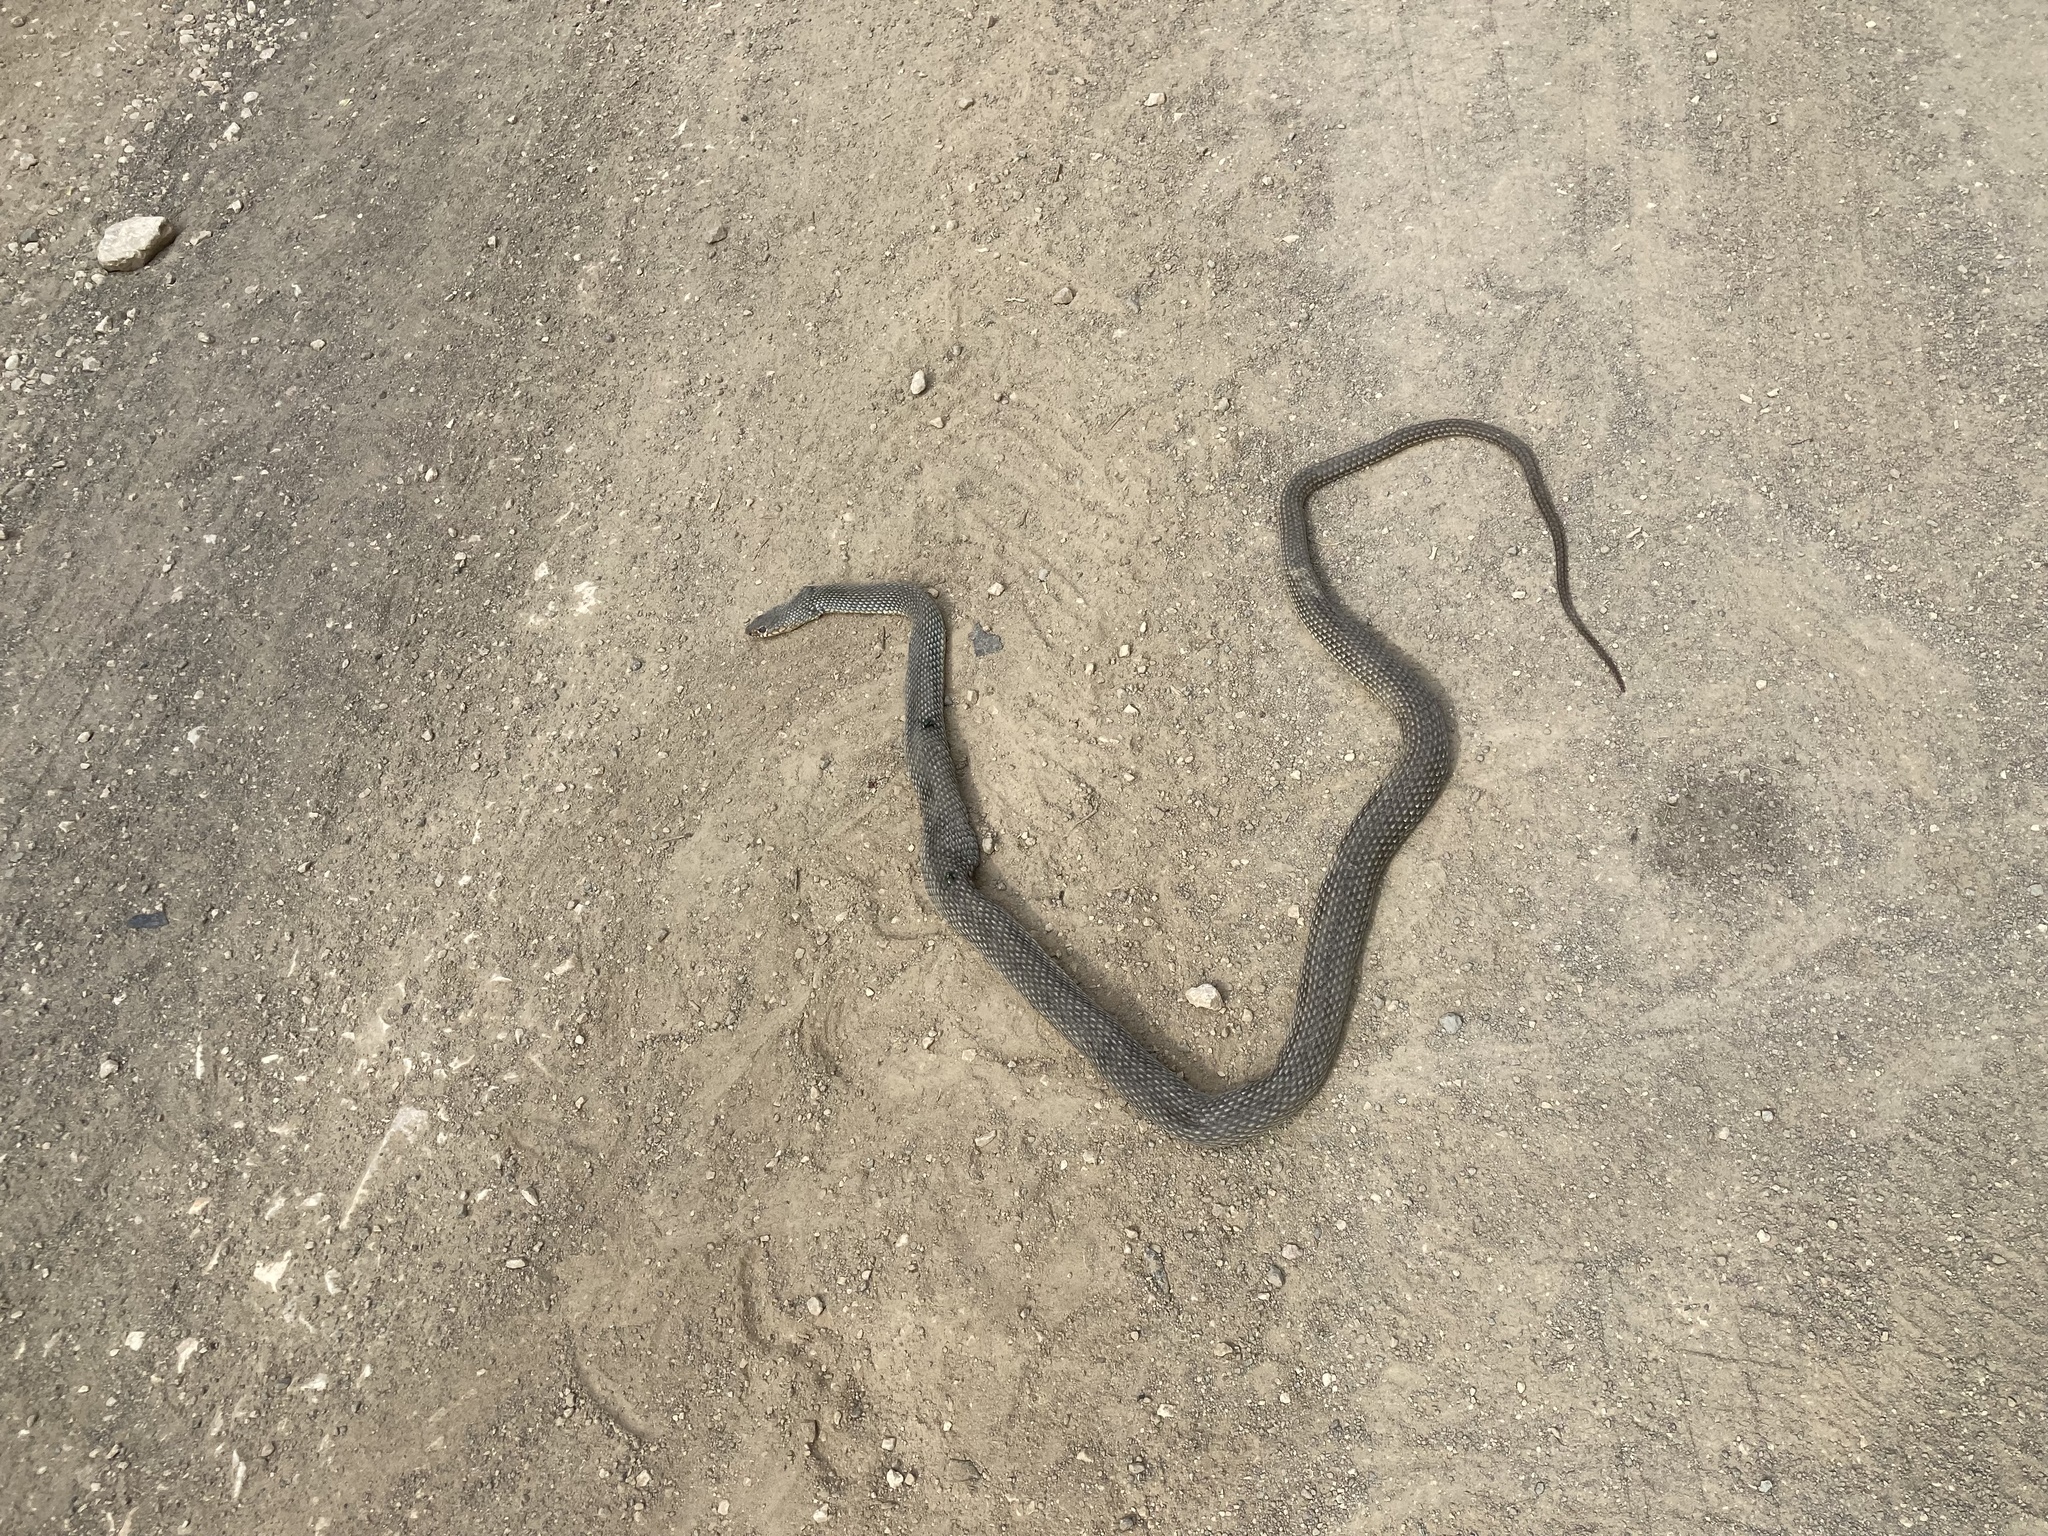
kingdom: Animalia
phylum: Chordata
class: Squamata
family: Colubridae
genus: Dolichophis
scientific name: Dolichophis caspius
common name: Large whip snake
